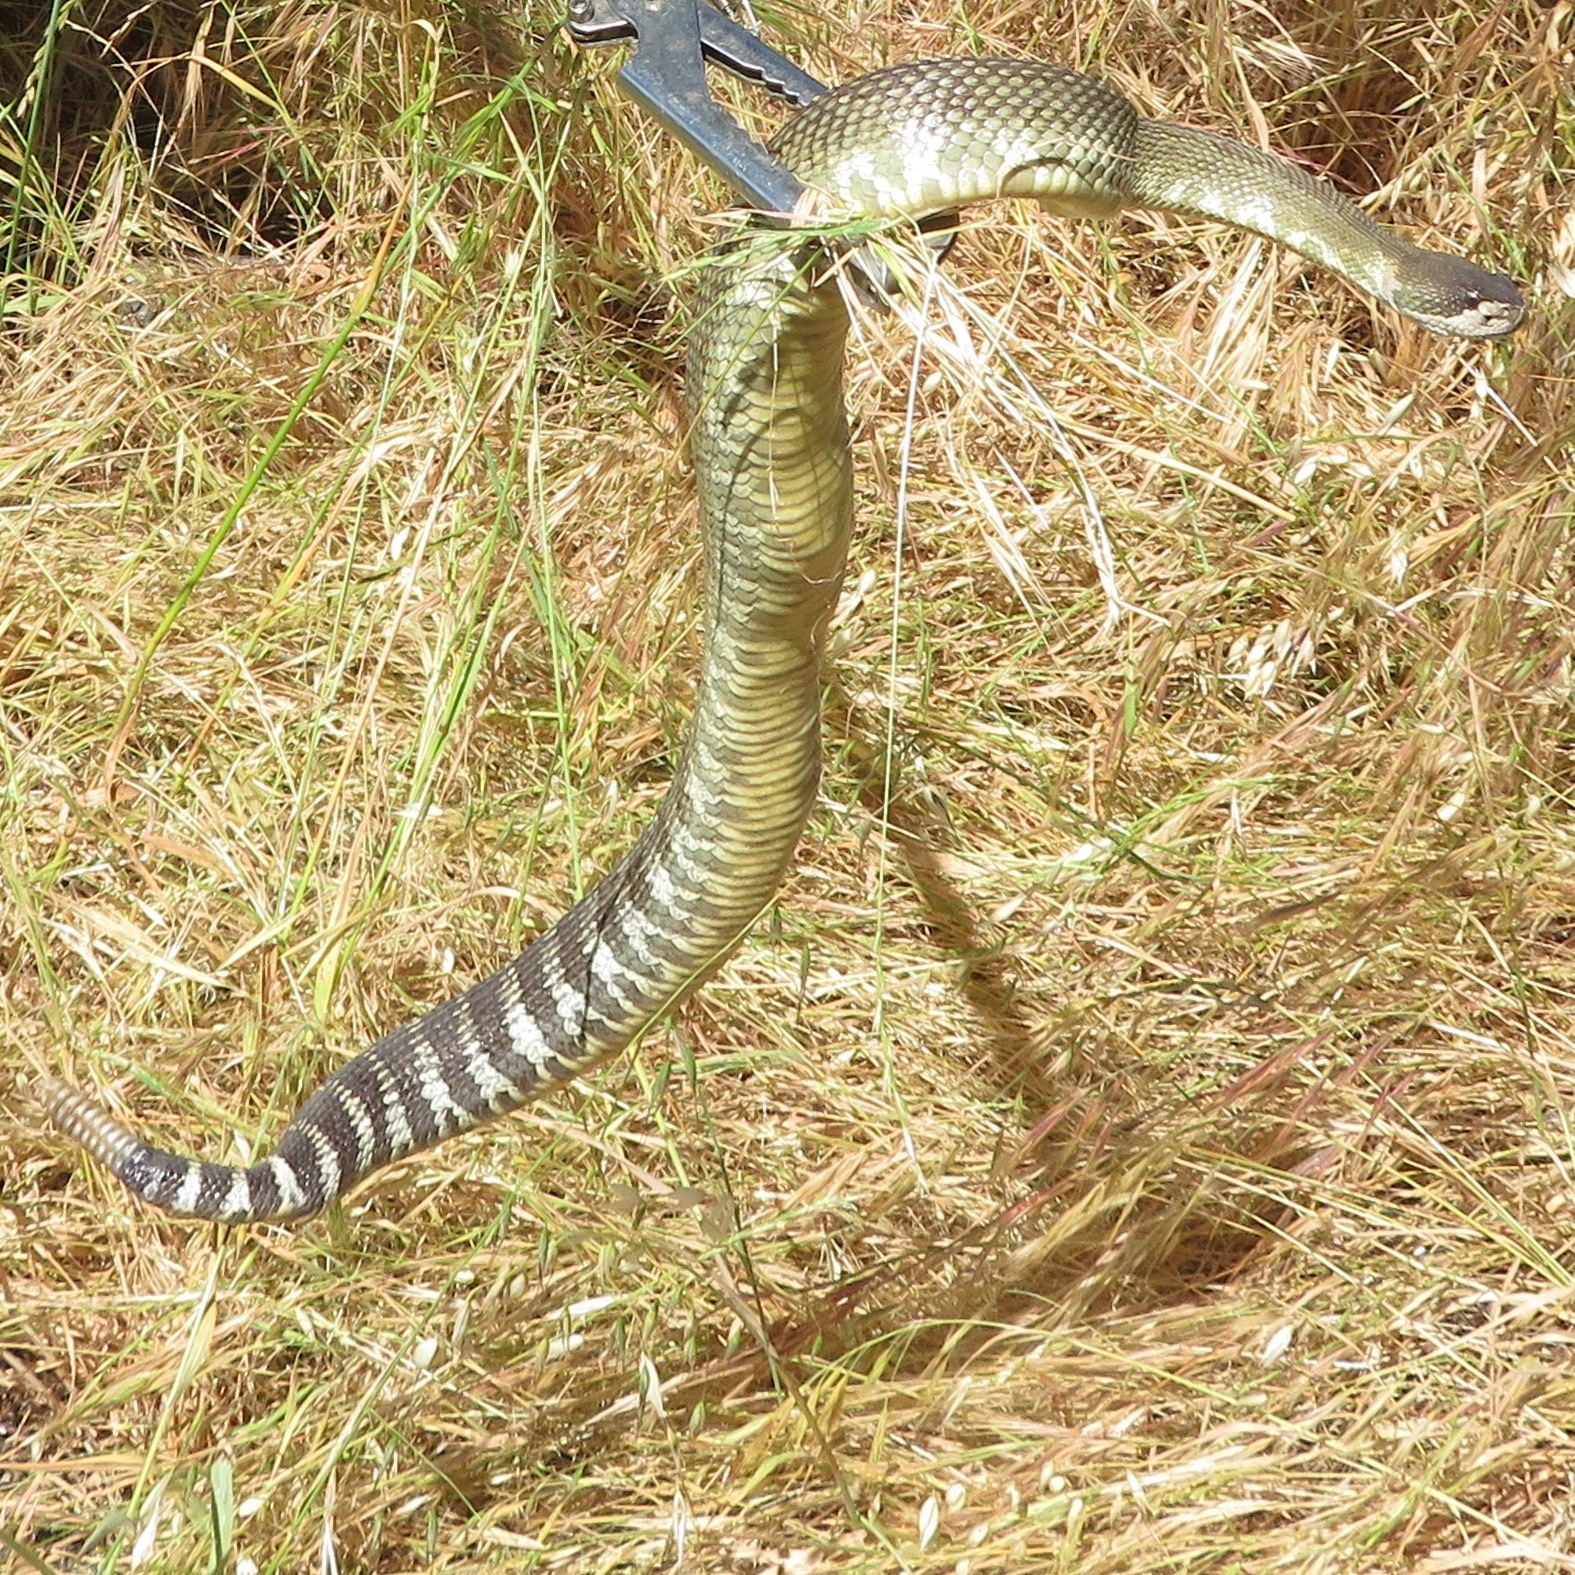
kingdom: Animalia
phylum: Chordata
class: Squamata
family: Viperidae
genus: Crotalus
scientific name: Crotalus oreganus
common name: Abyssus
